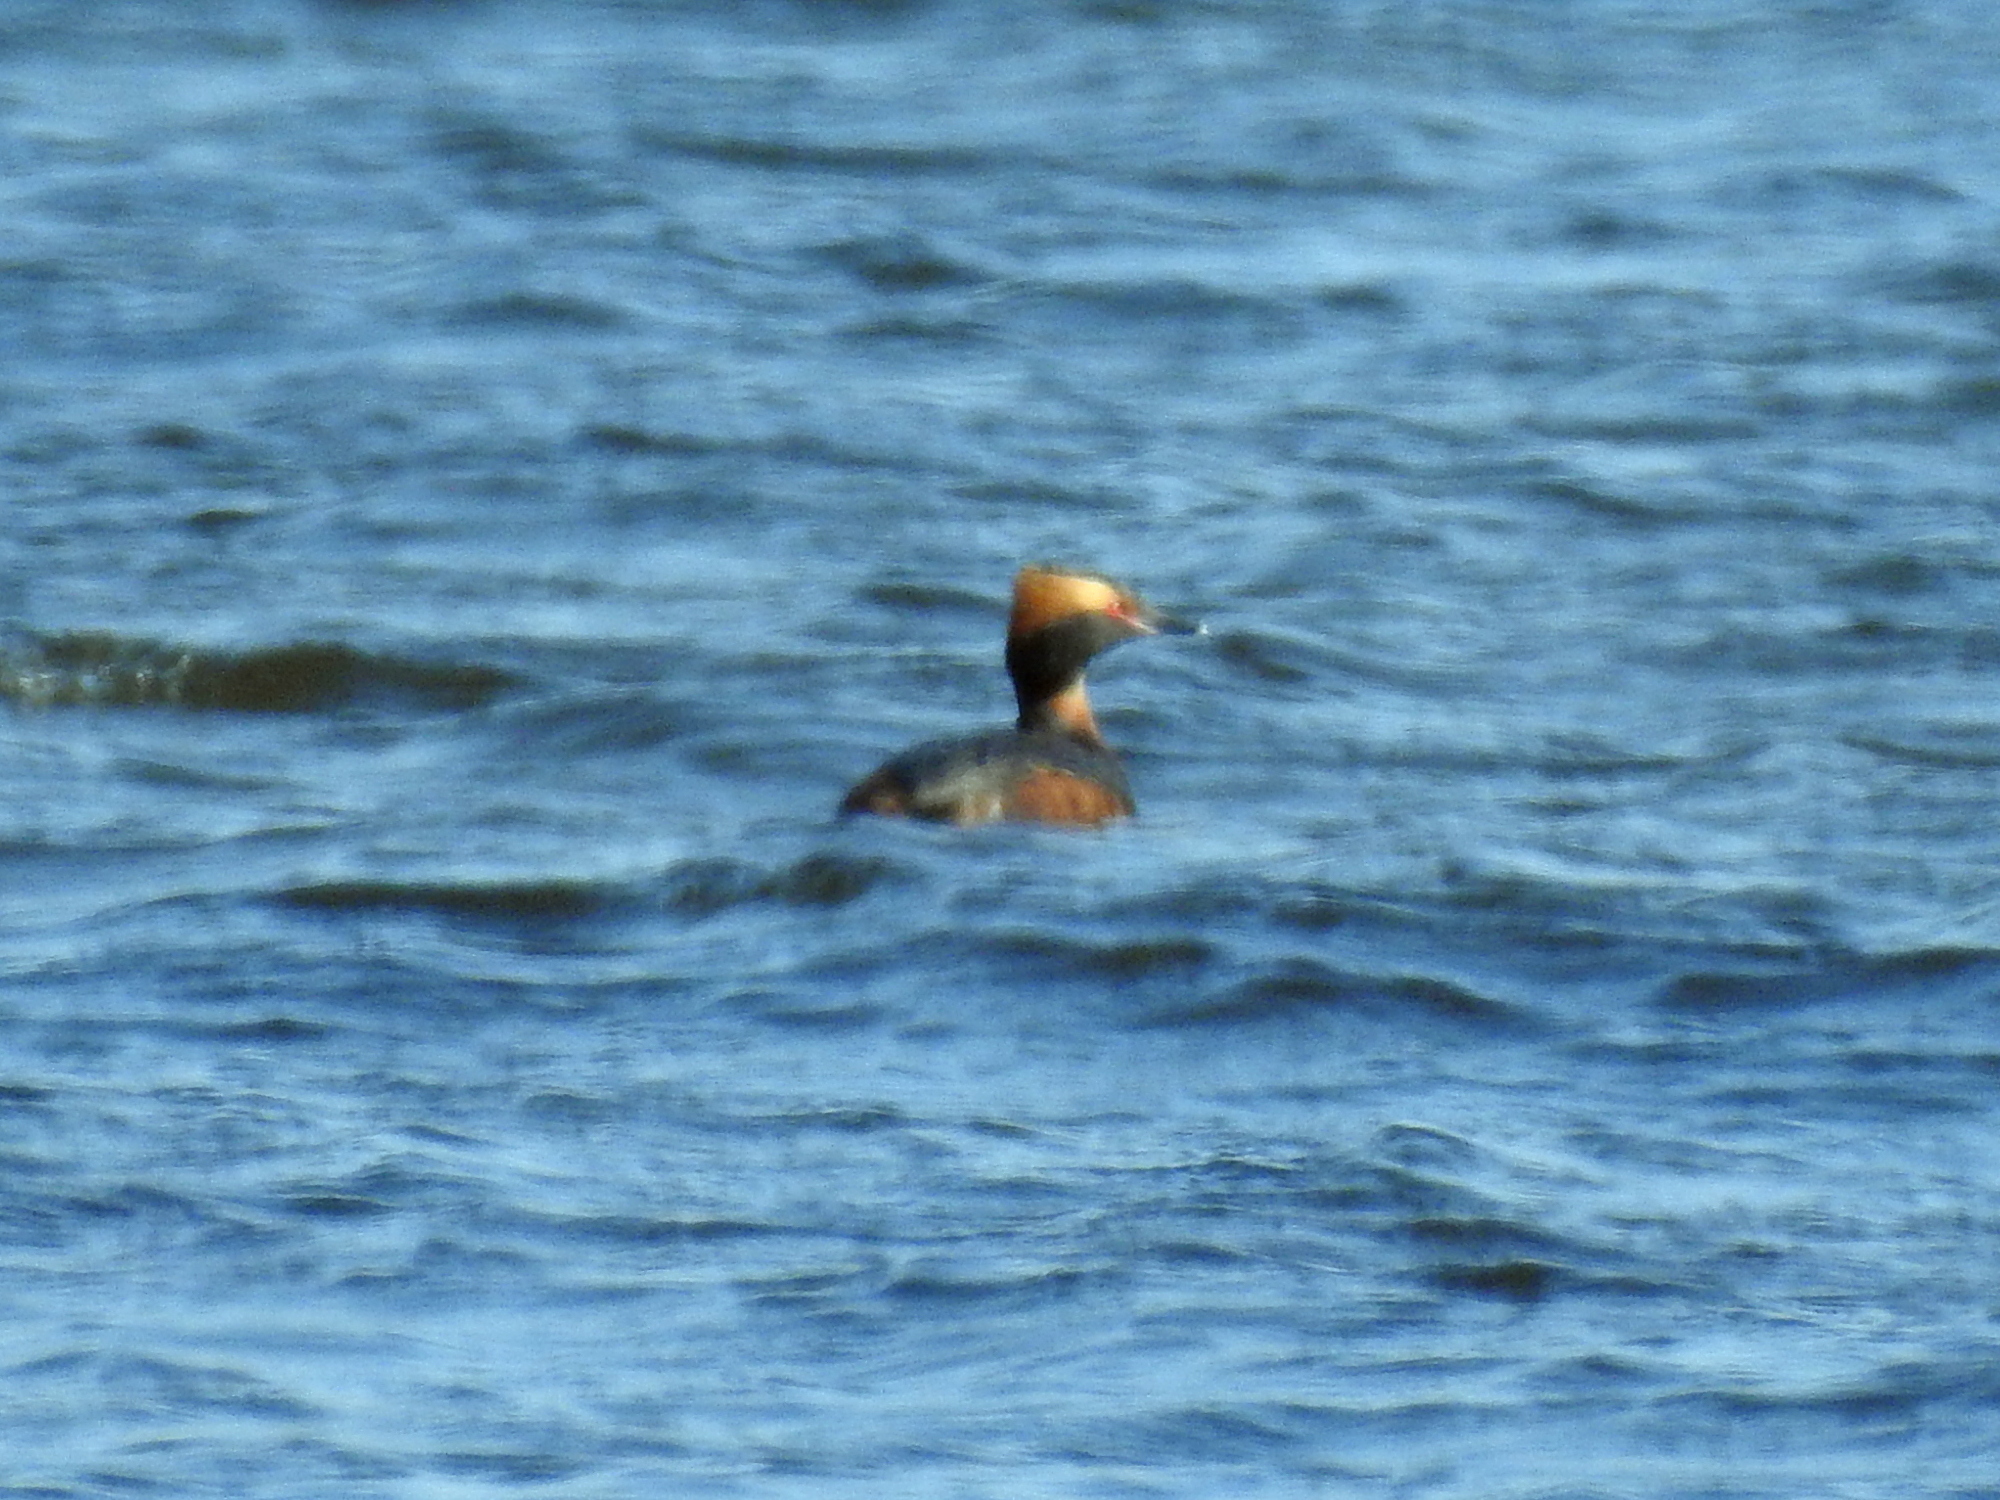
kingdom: Animalia
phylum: Chordata
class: Aves
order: Podicipediformes
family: Podicipedidae
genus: Podiceps
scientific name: Podiceps auritus
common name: Horned grebe
